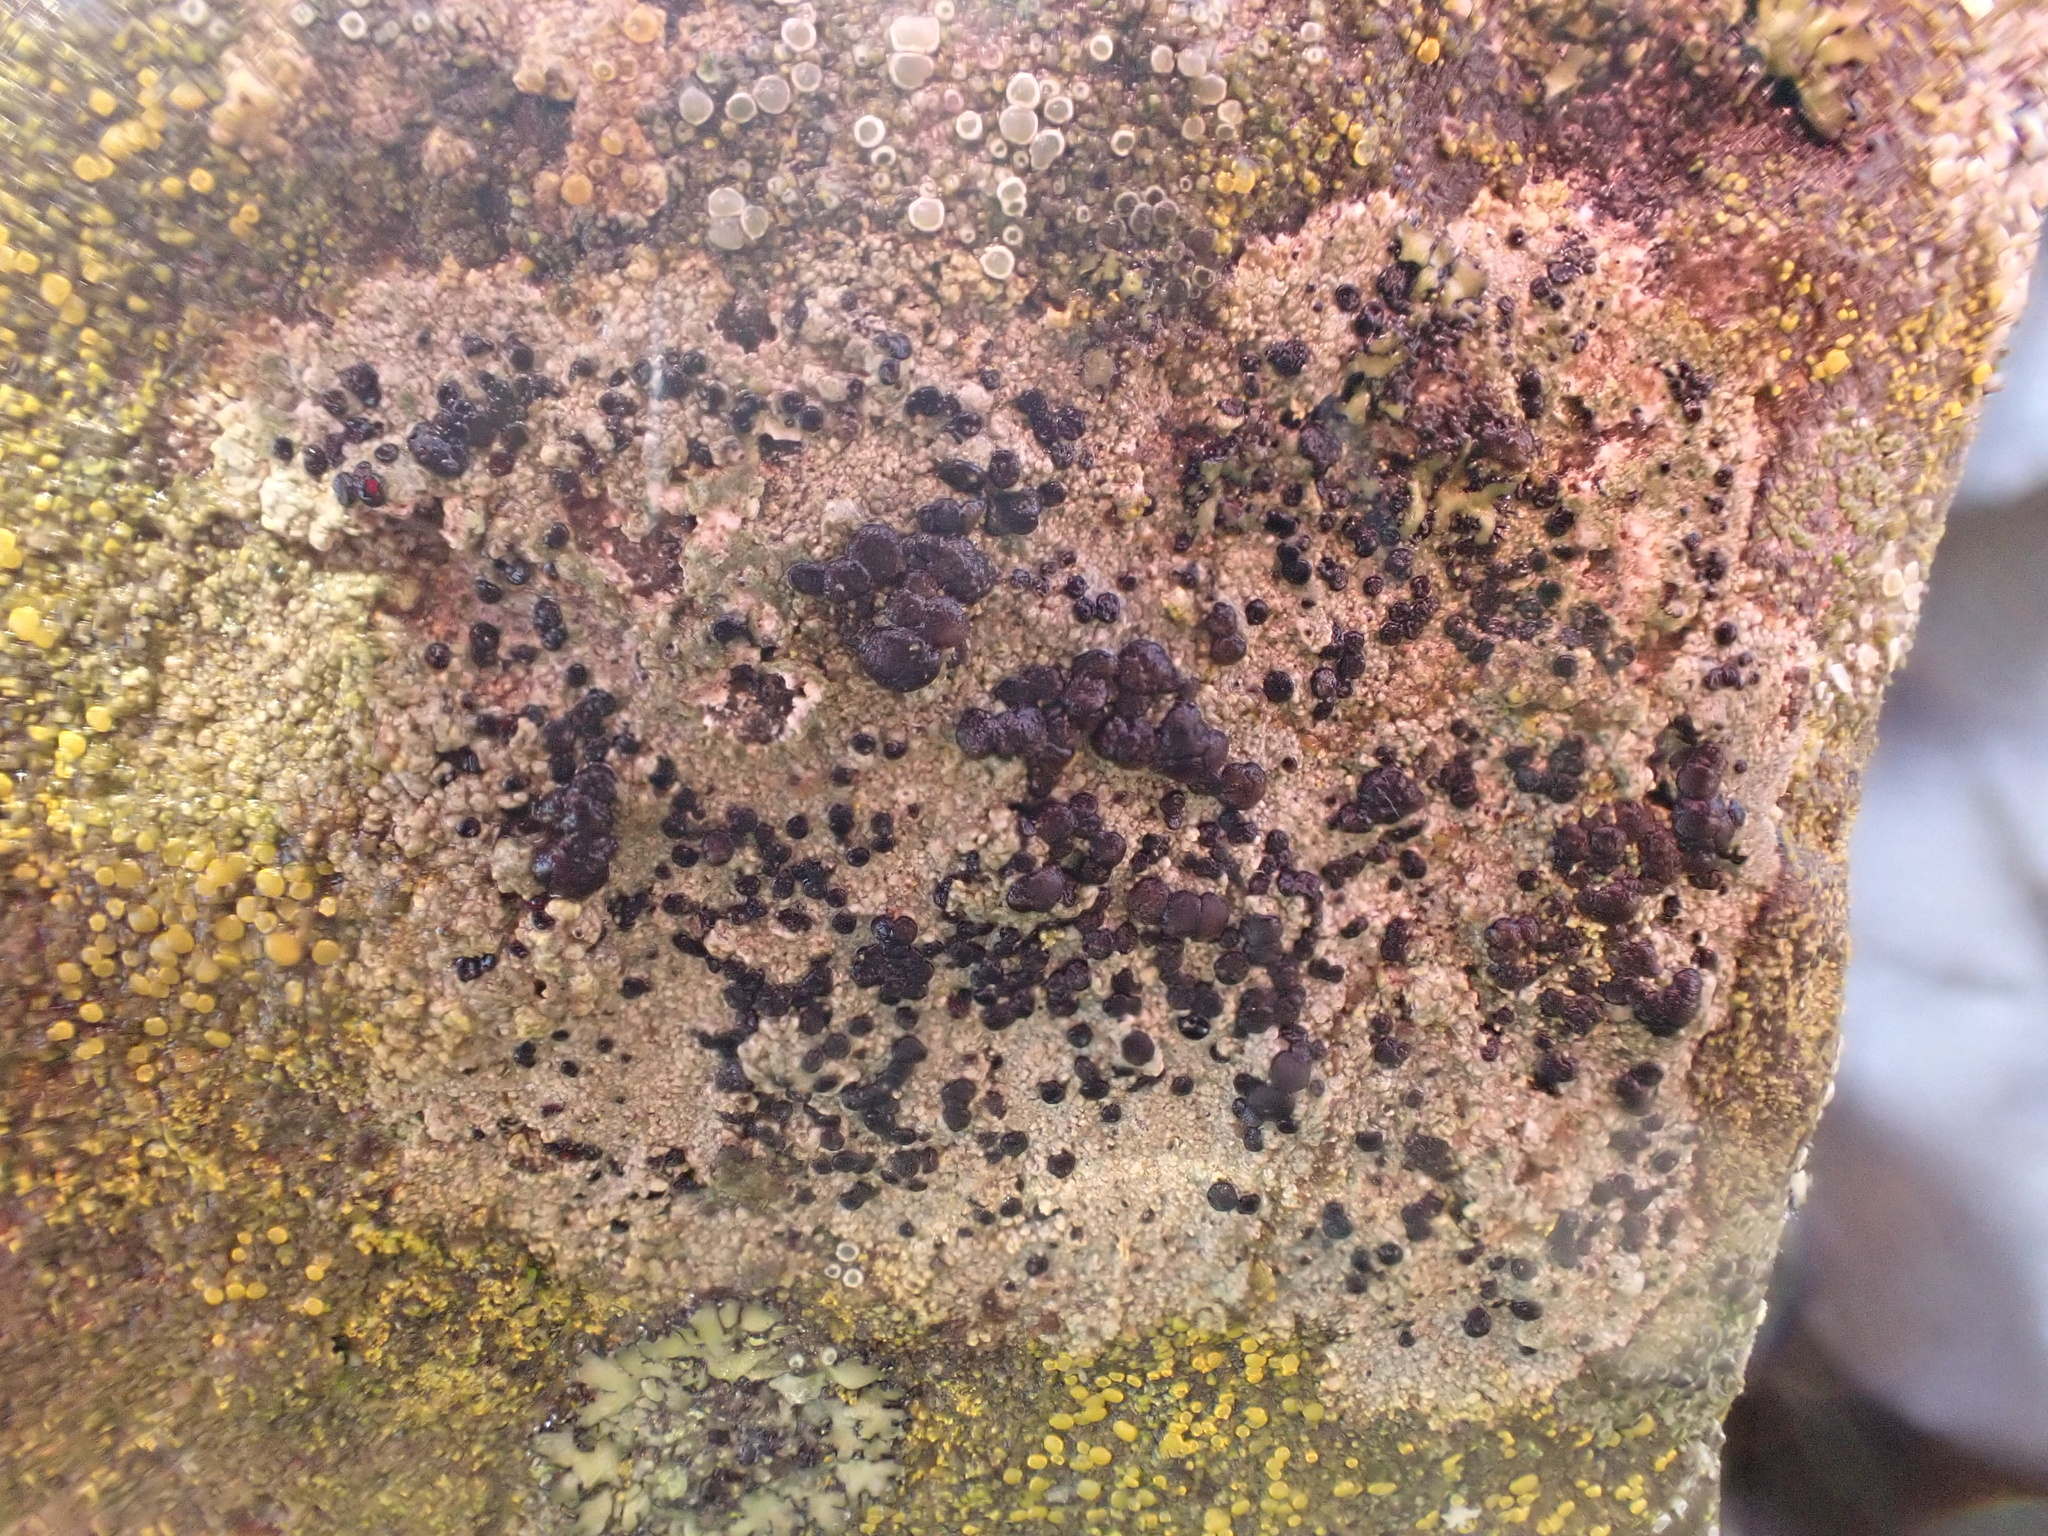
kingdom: Fungi
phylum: Ascomycota
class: Lecanoromycetes
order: Lecanorales
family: Lecanoraceae
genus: Lecidella
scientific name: Lecidella stigmatea
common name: Limestone disc lichen
